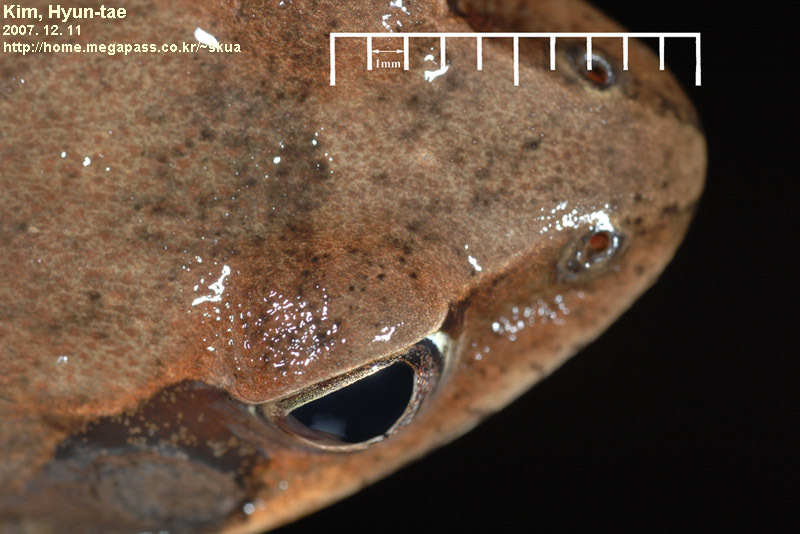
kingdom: Animalia
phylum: Chordata
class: Amphibia
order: Anura
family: Ranidae
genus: Rana
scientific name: Rana uenoi
